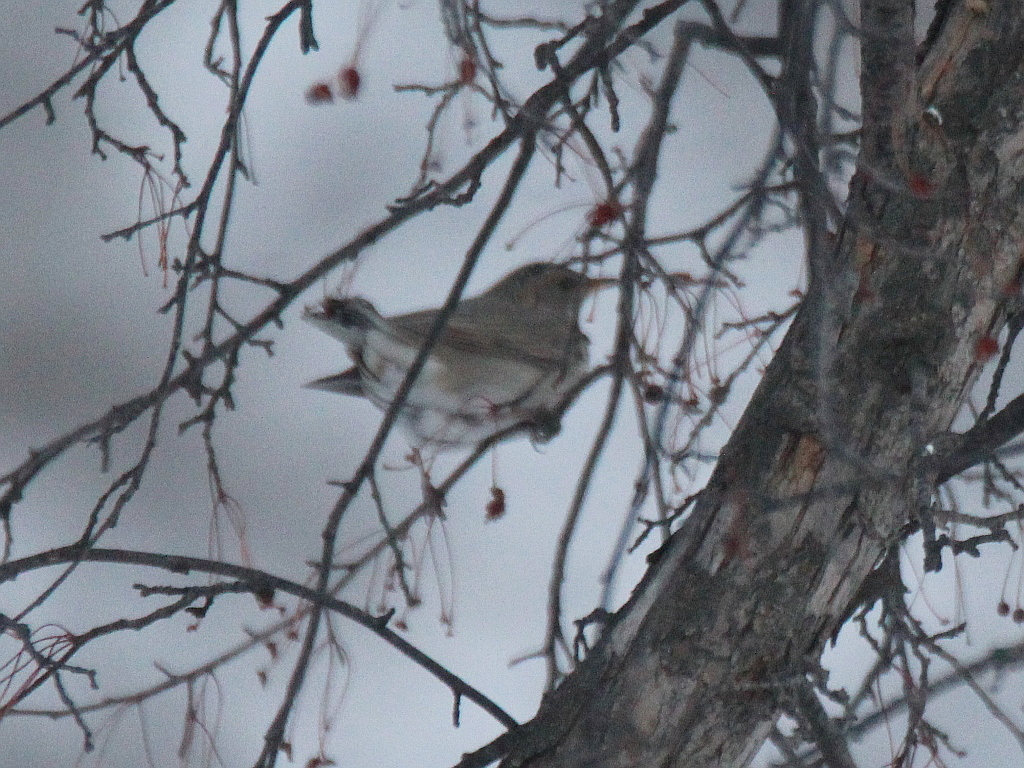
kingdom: Animalia
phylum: Chordata
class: Aves
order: Passeriformes
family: Turdidae
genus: Turdus
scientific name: Turdus atrogularis
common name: Black-throated thrush
